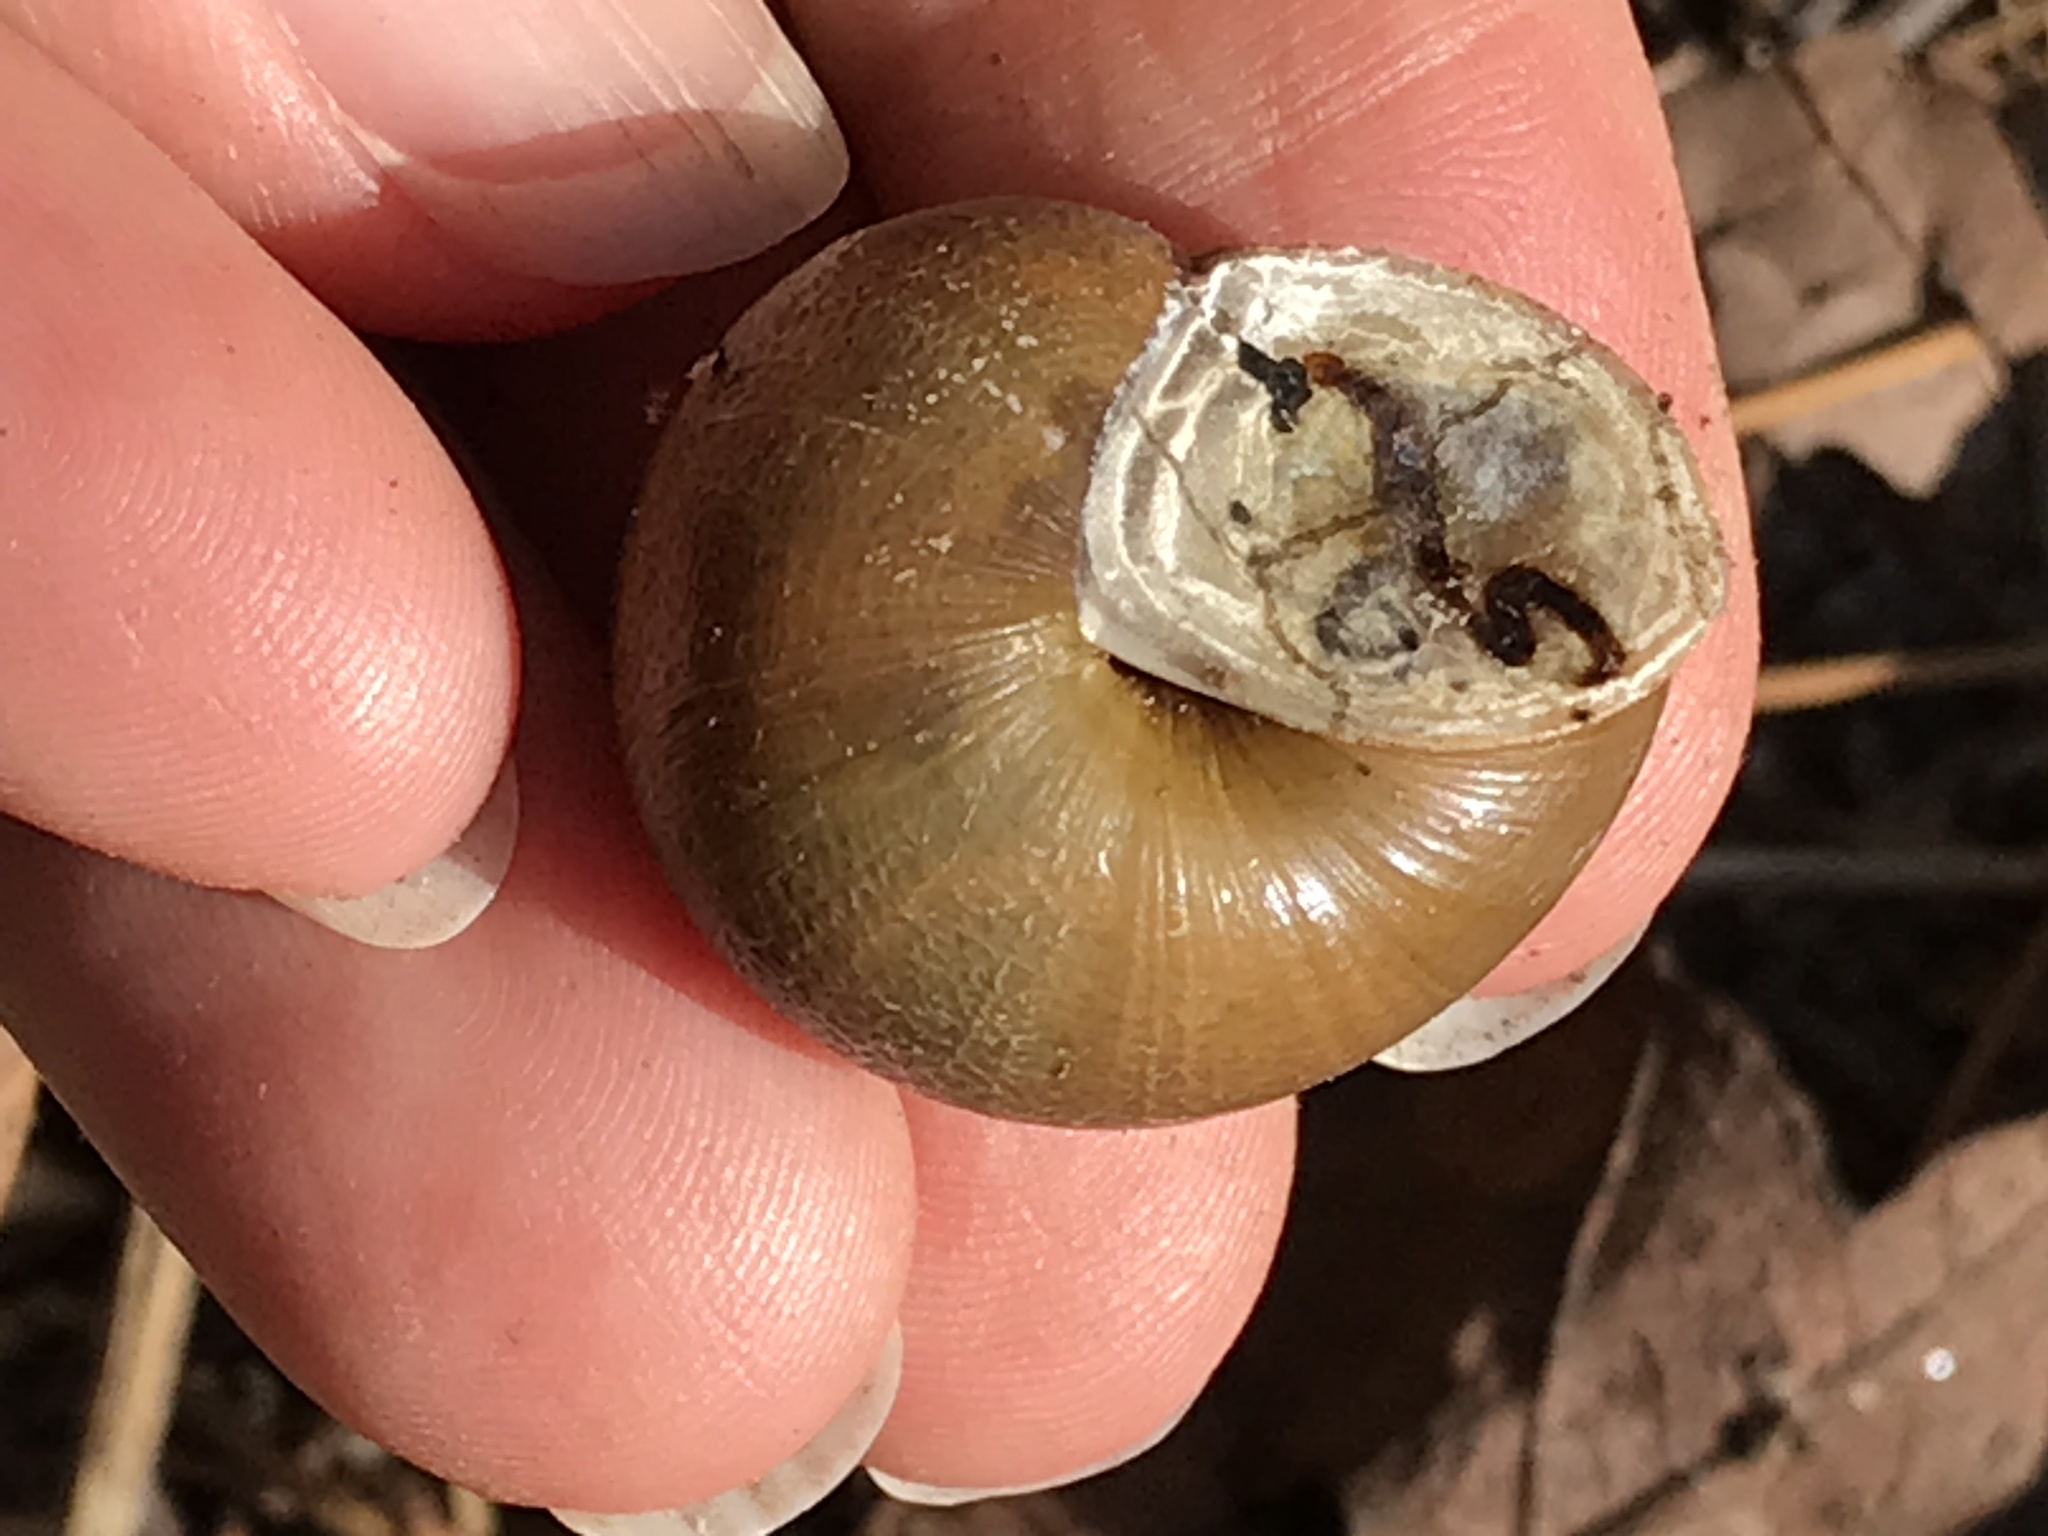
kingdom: Animalia
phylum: Mollusca
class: Gastropoda
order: Stylommatophora
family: Xanthonychidae
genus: Helminthoglypta
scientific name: Helminthoglypta tudiculata
